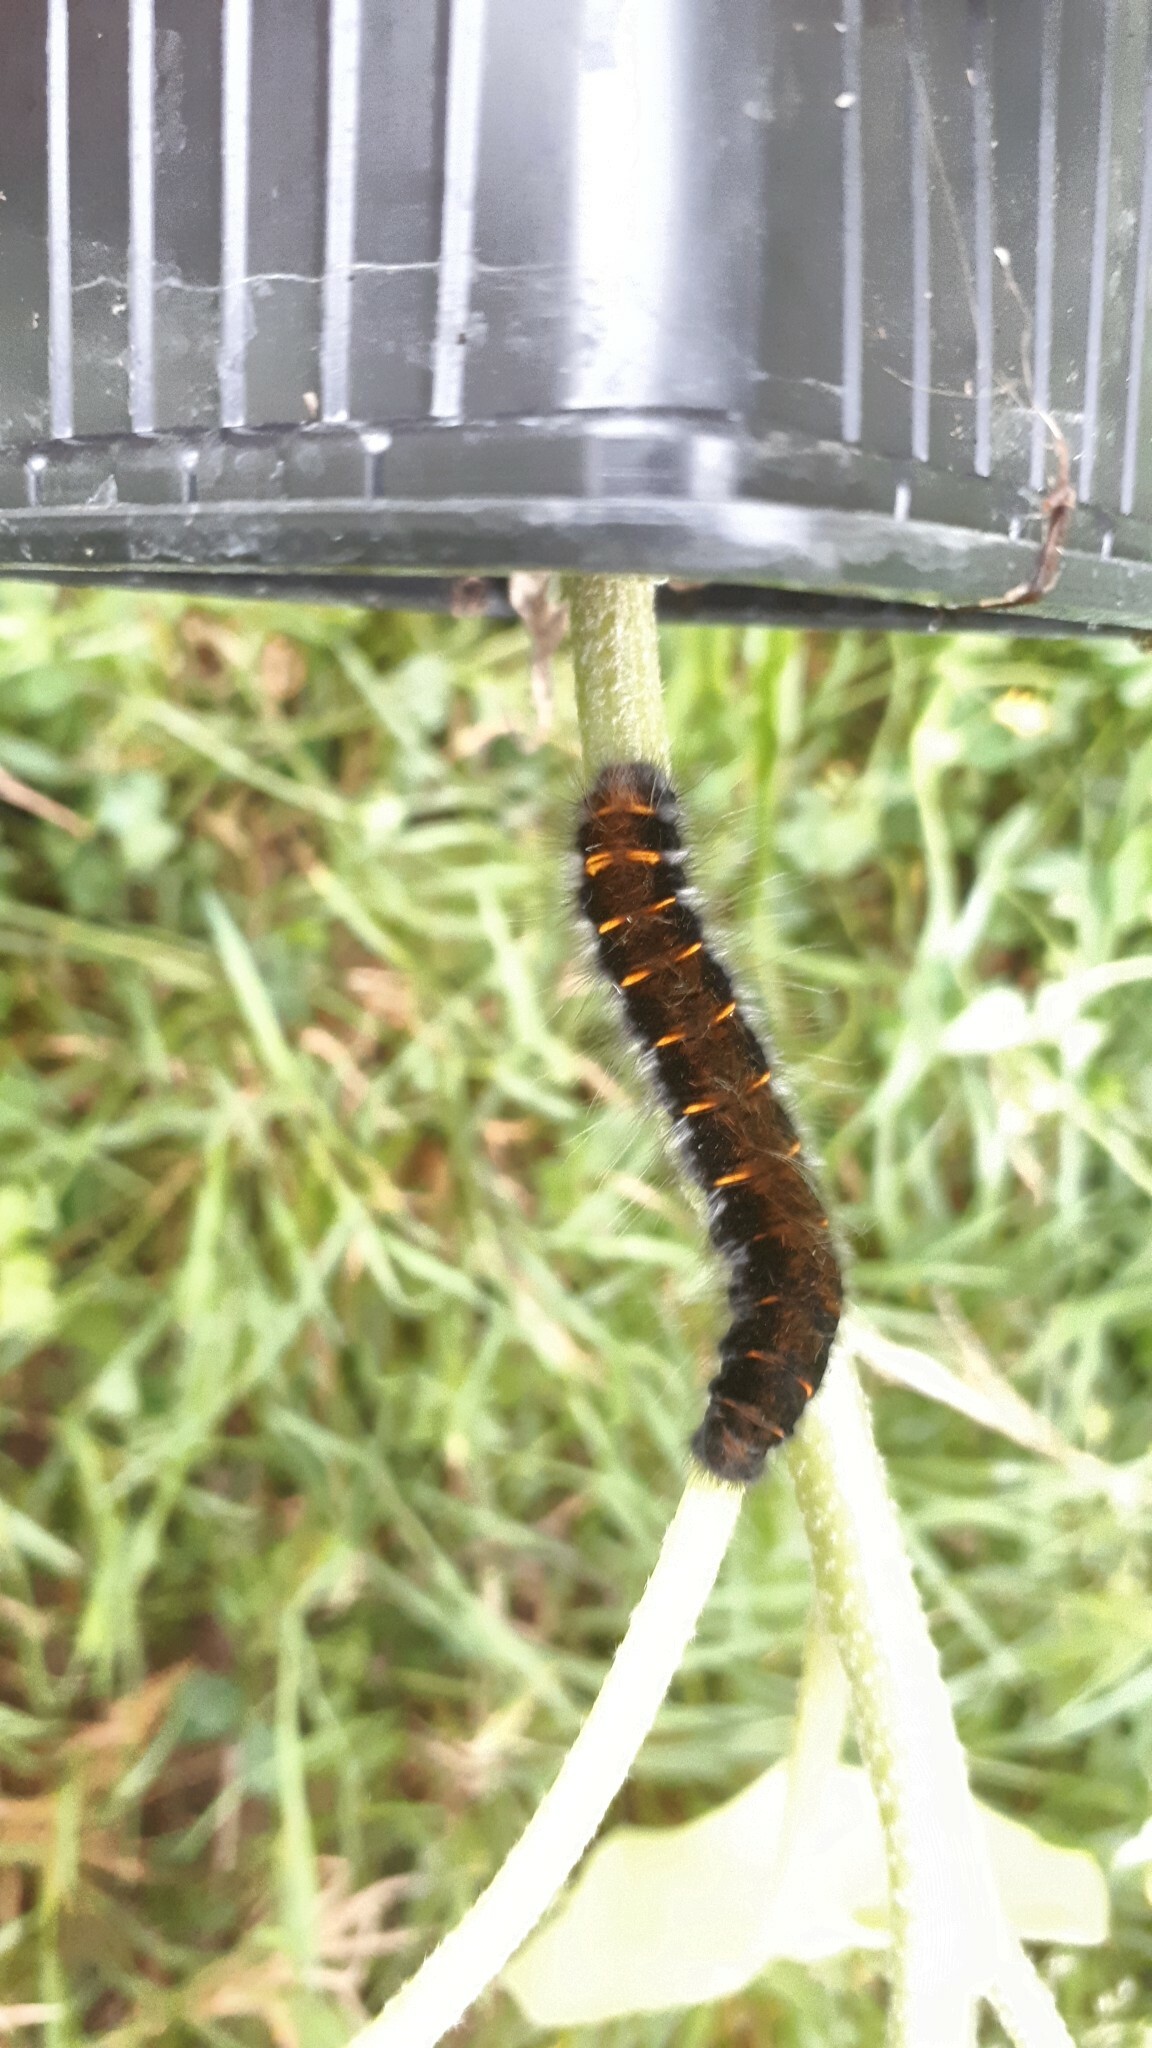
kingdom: Animalia
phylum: Arthropoda
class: Insecta
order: Lepidoptera
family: Lasiocampidae
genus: Macrothylacia
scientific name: Macrothylacia rubi
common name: Fox moth
